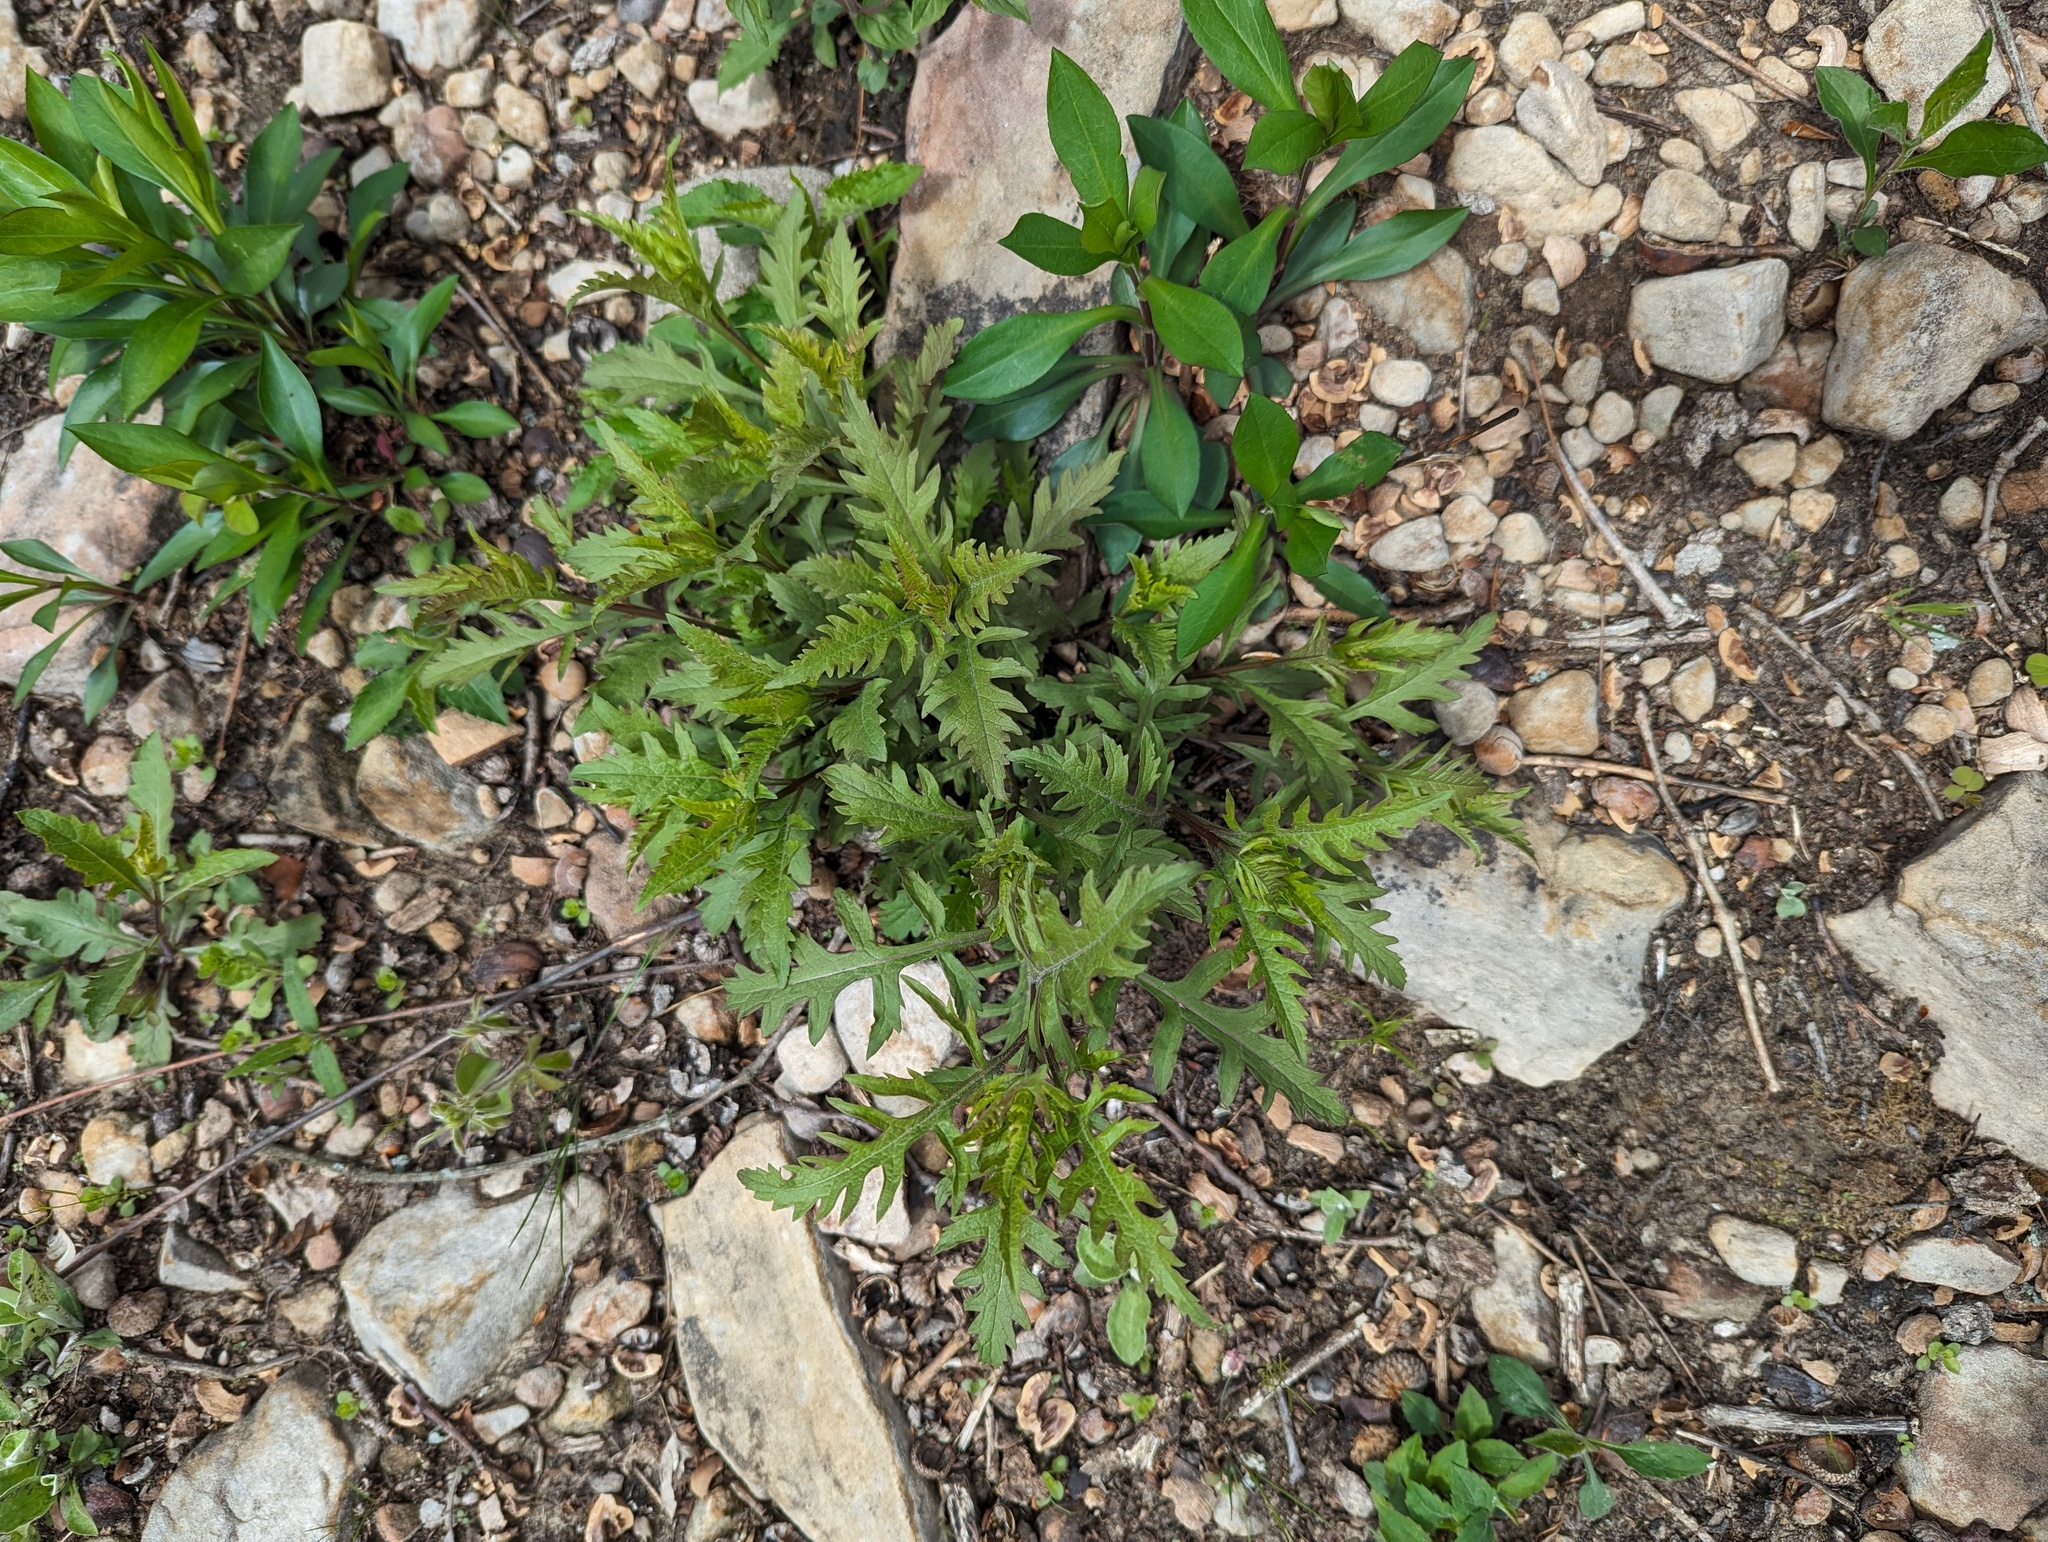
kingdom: Plantae
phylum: Tracheophyta
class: Magnoliopsida
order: Lamiales
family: Orobanchaceae
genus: Aureolaria
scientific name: Aureolaria flava
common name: Smooth false foxglove
